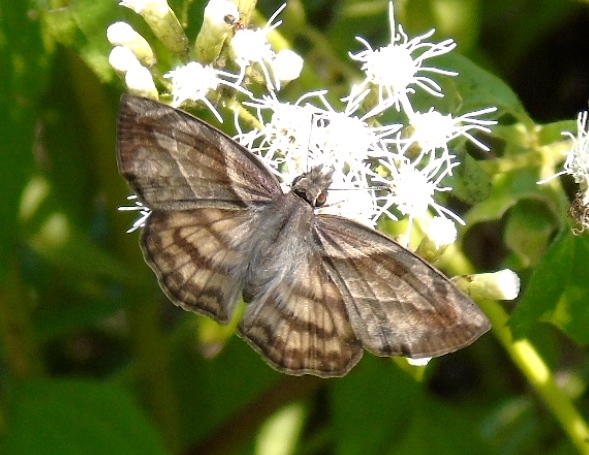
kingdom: Animalia
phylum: Arthropoda
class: Insecta
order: Lepidoptera
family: Hesperiidae
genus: Timochares
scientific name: Timochares trifasciata
